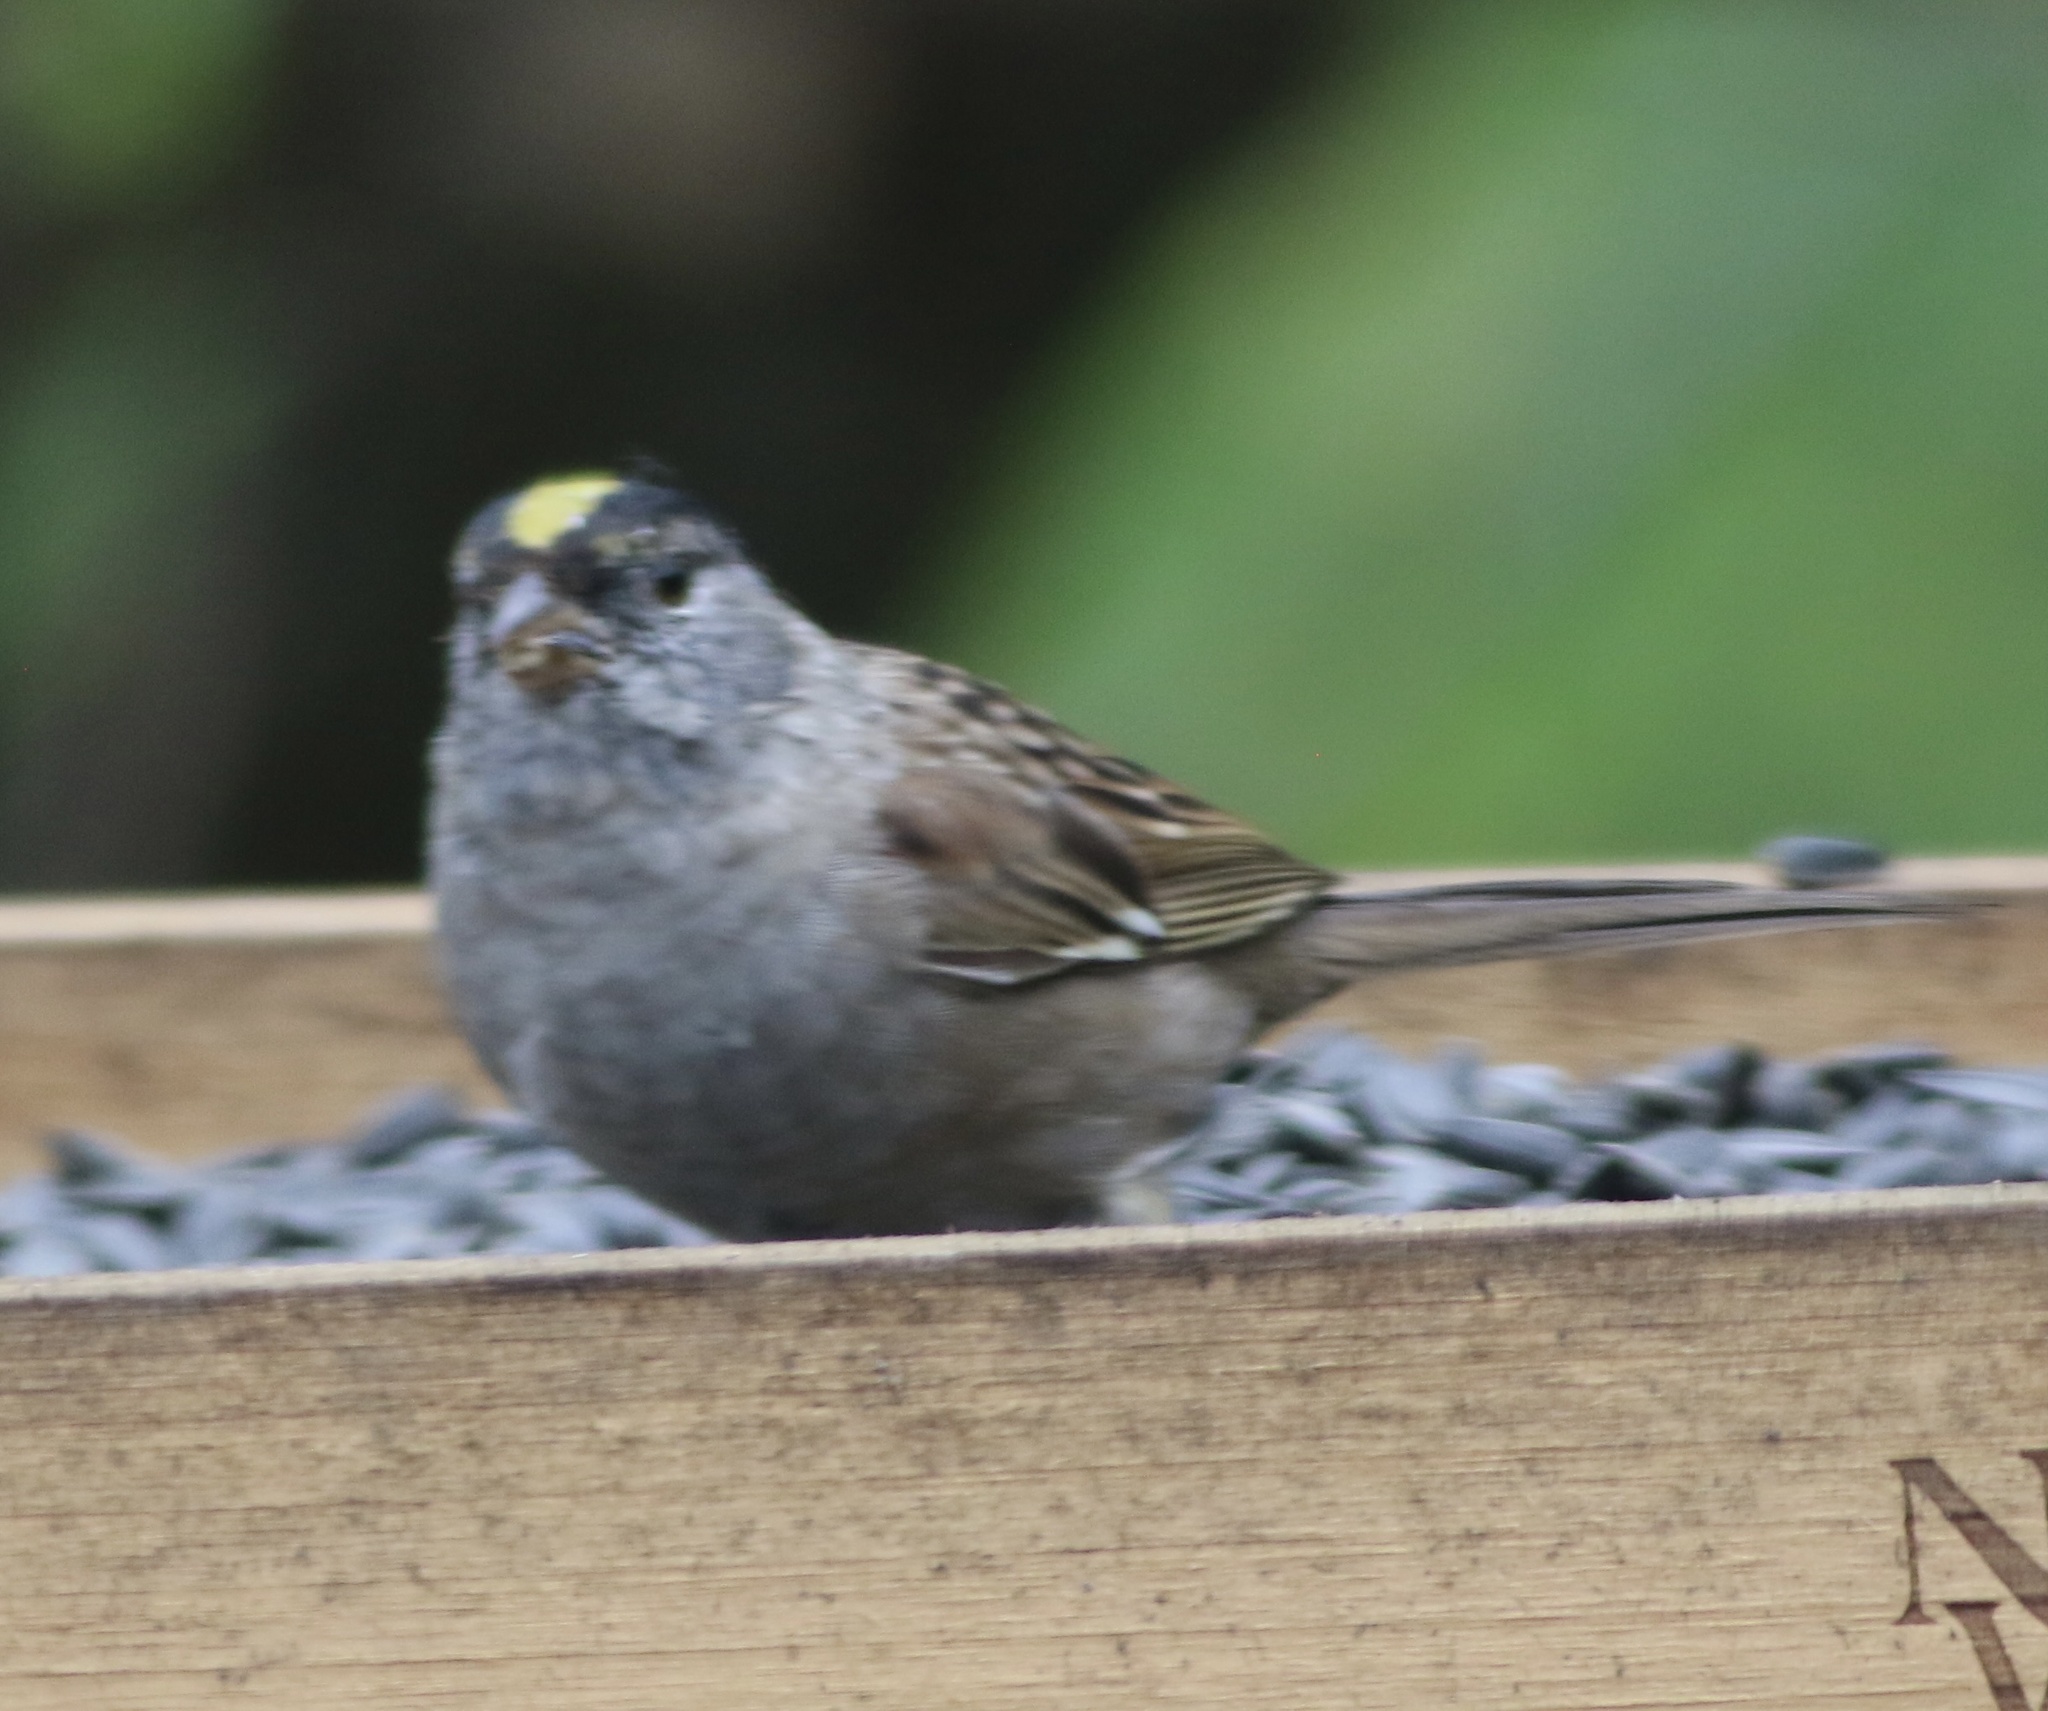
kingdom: Animalia
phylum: Chordata
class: Aves
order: Passeriformes
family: Passerellidae
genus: Zonotrichia
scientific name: Zonotrichia atricapilla
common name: Golden-crowned sparrow
